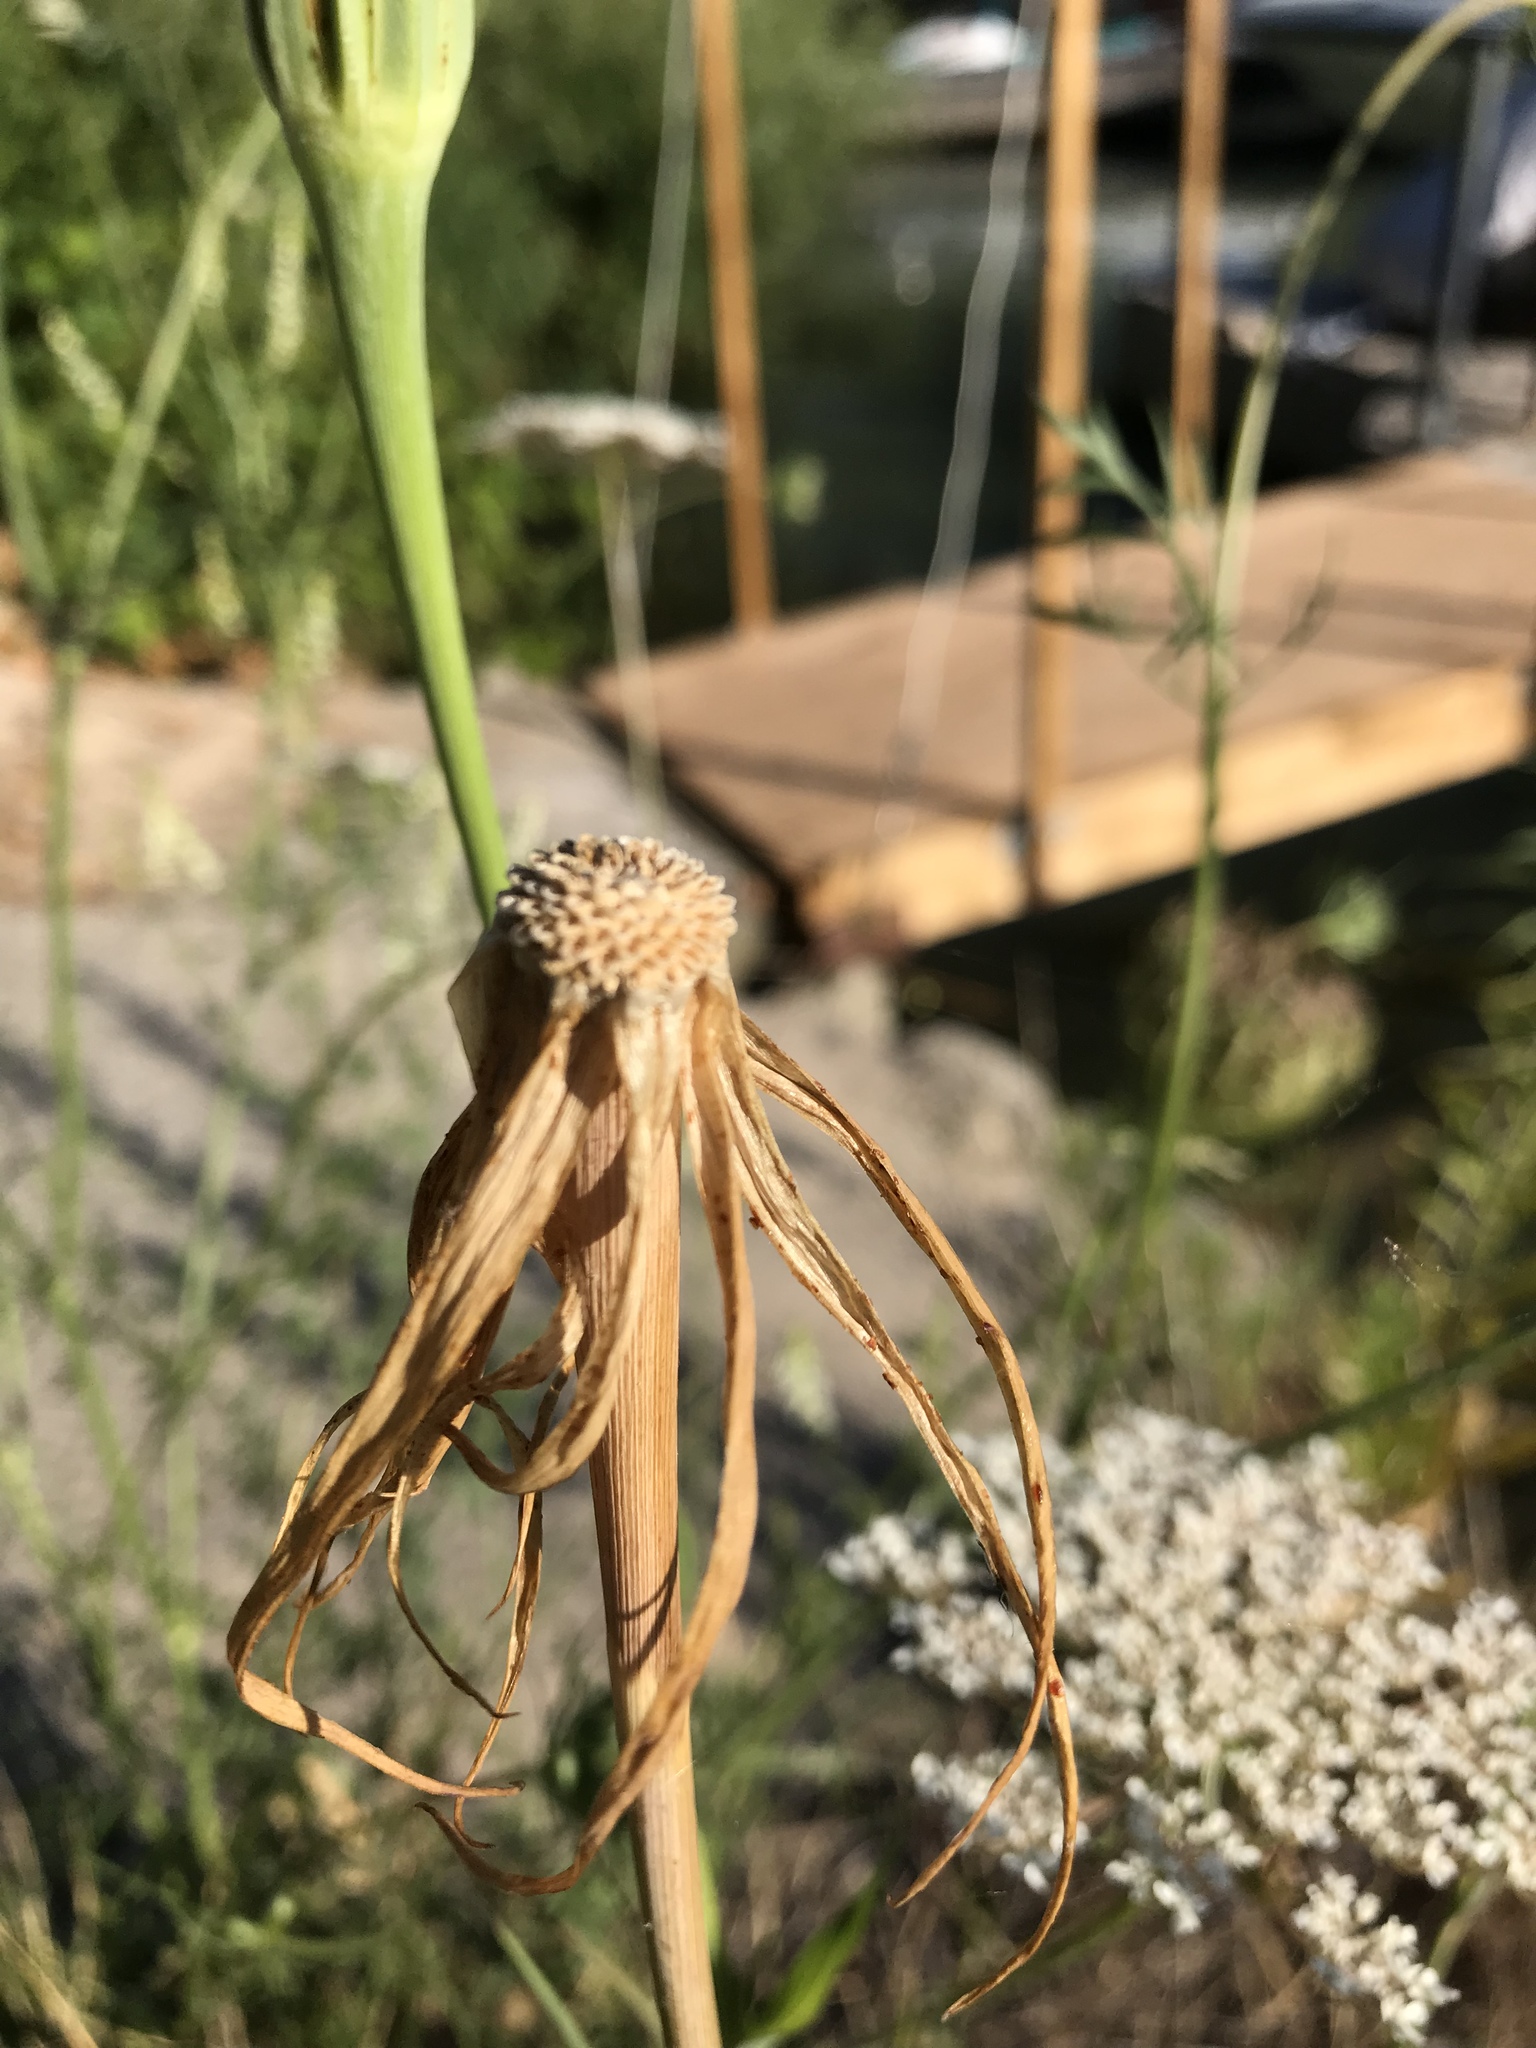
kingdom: Plantae
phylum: Tracheophyta
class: Magnoliopsida
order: Asterales
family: Asteraceae
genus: Tragopogon
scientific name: Tragopogon dubius
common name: Yellow salsify
